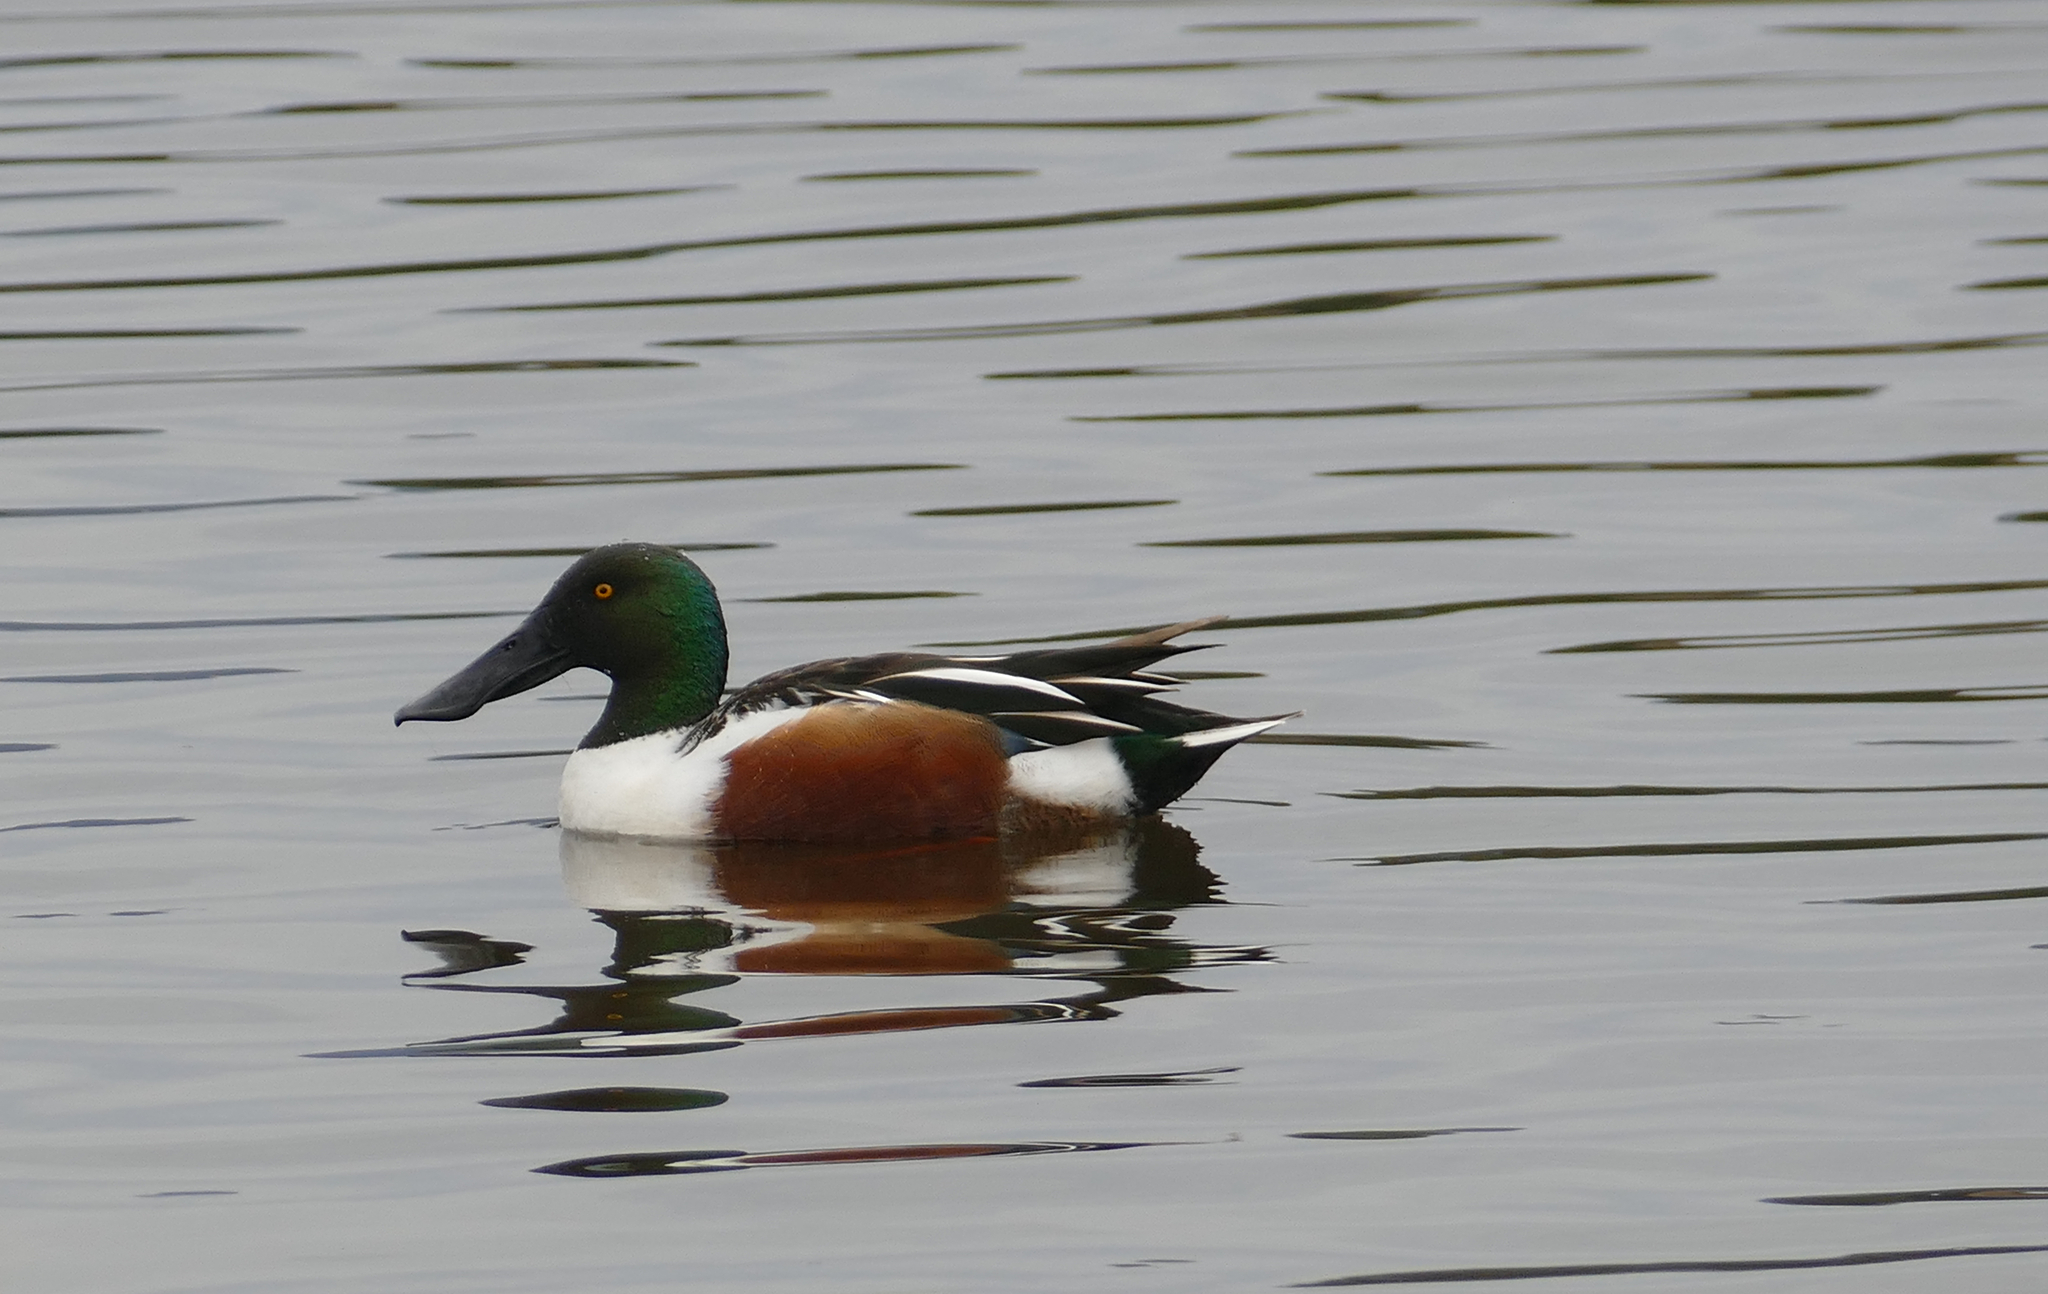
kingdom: Animalia
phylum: Chordata
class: Aves
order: Anseriformes
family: Anatidae
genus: Spatula
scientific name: Spatula clypeata
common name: Northern shoveler
